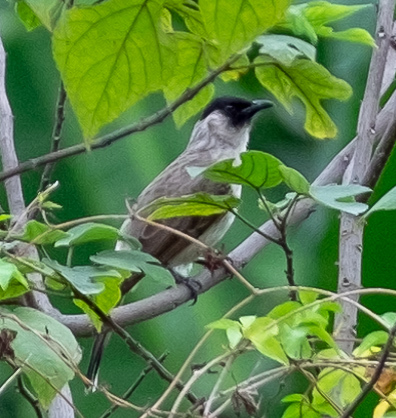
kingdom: Animalia
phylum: Chordata
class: Aves
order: Passeriformes
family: Pycnonotidae
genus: Pycnonotus
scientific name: Pycnonotus aurigaster
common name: Sooty-headed bulbul
